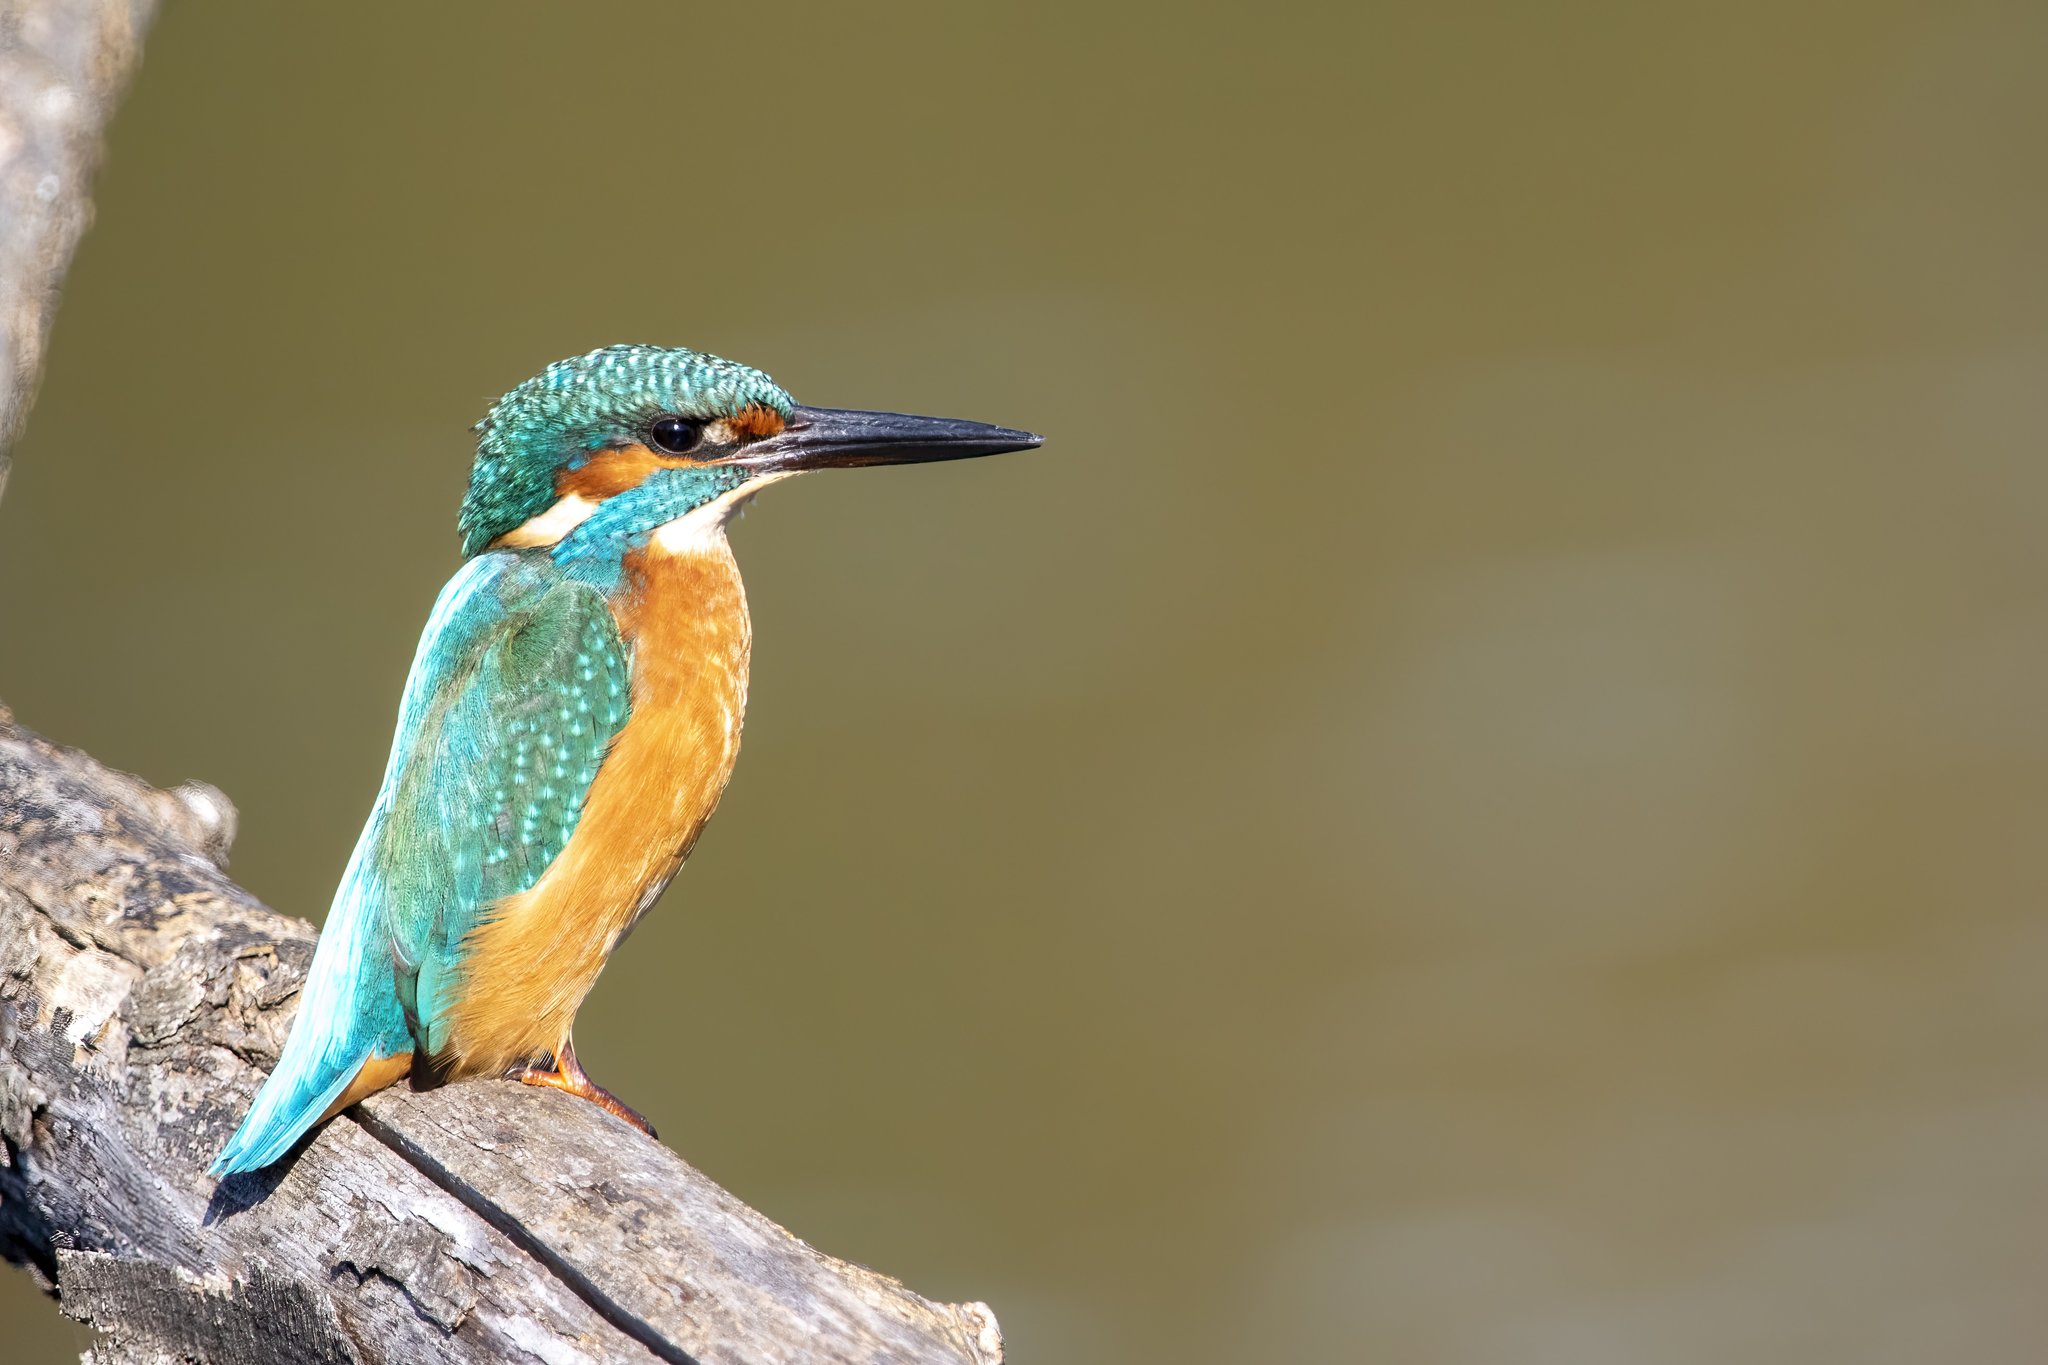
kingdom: Animalia
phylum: Chordata
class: Aves
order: Coraciiformes
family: Alcedinidae
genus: Alcedo
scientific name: Alcedo atthis
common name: Common kingfisher
